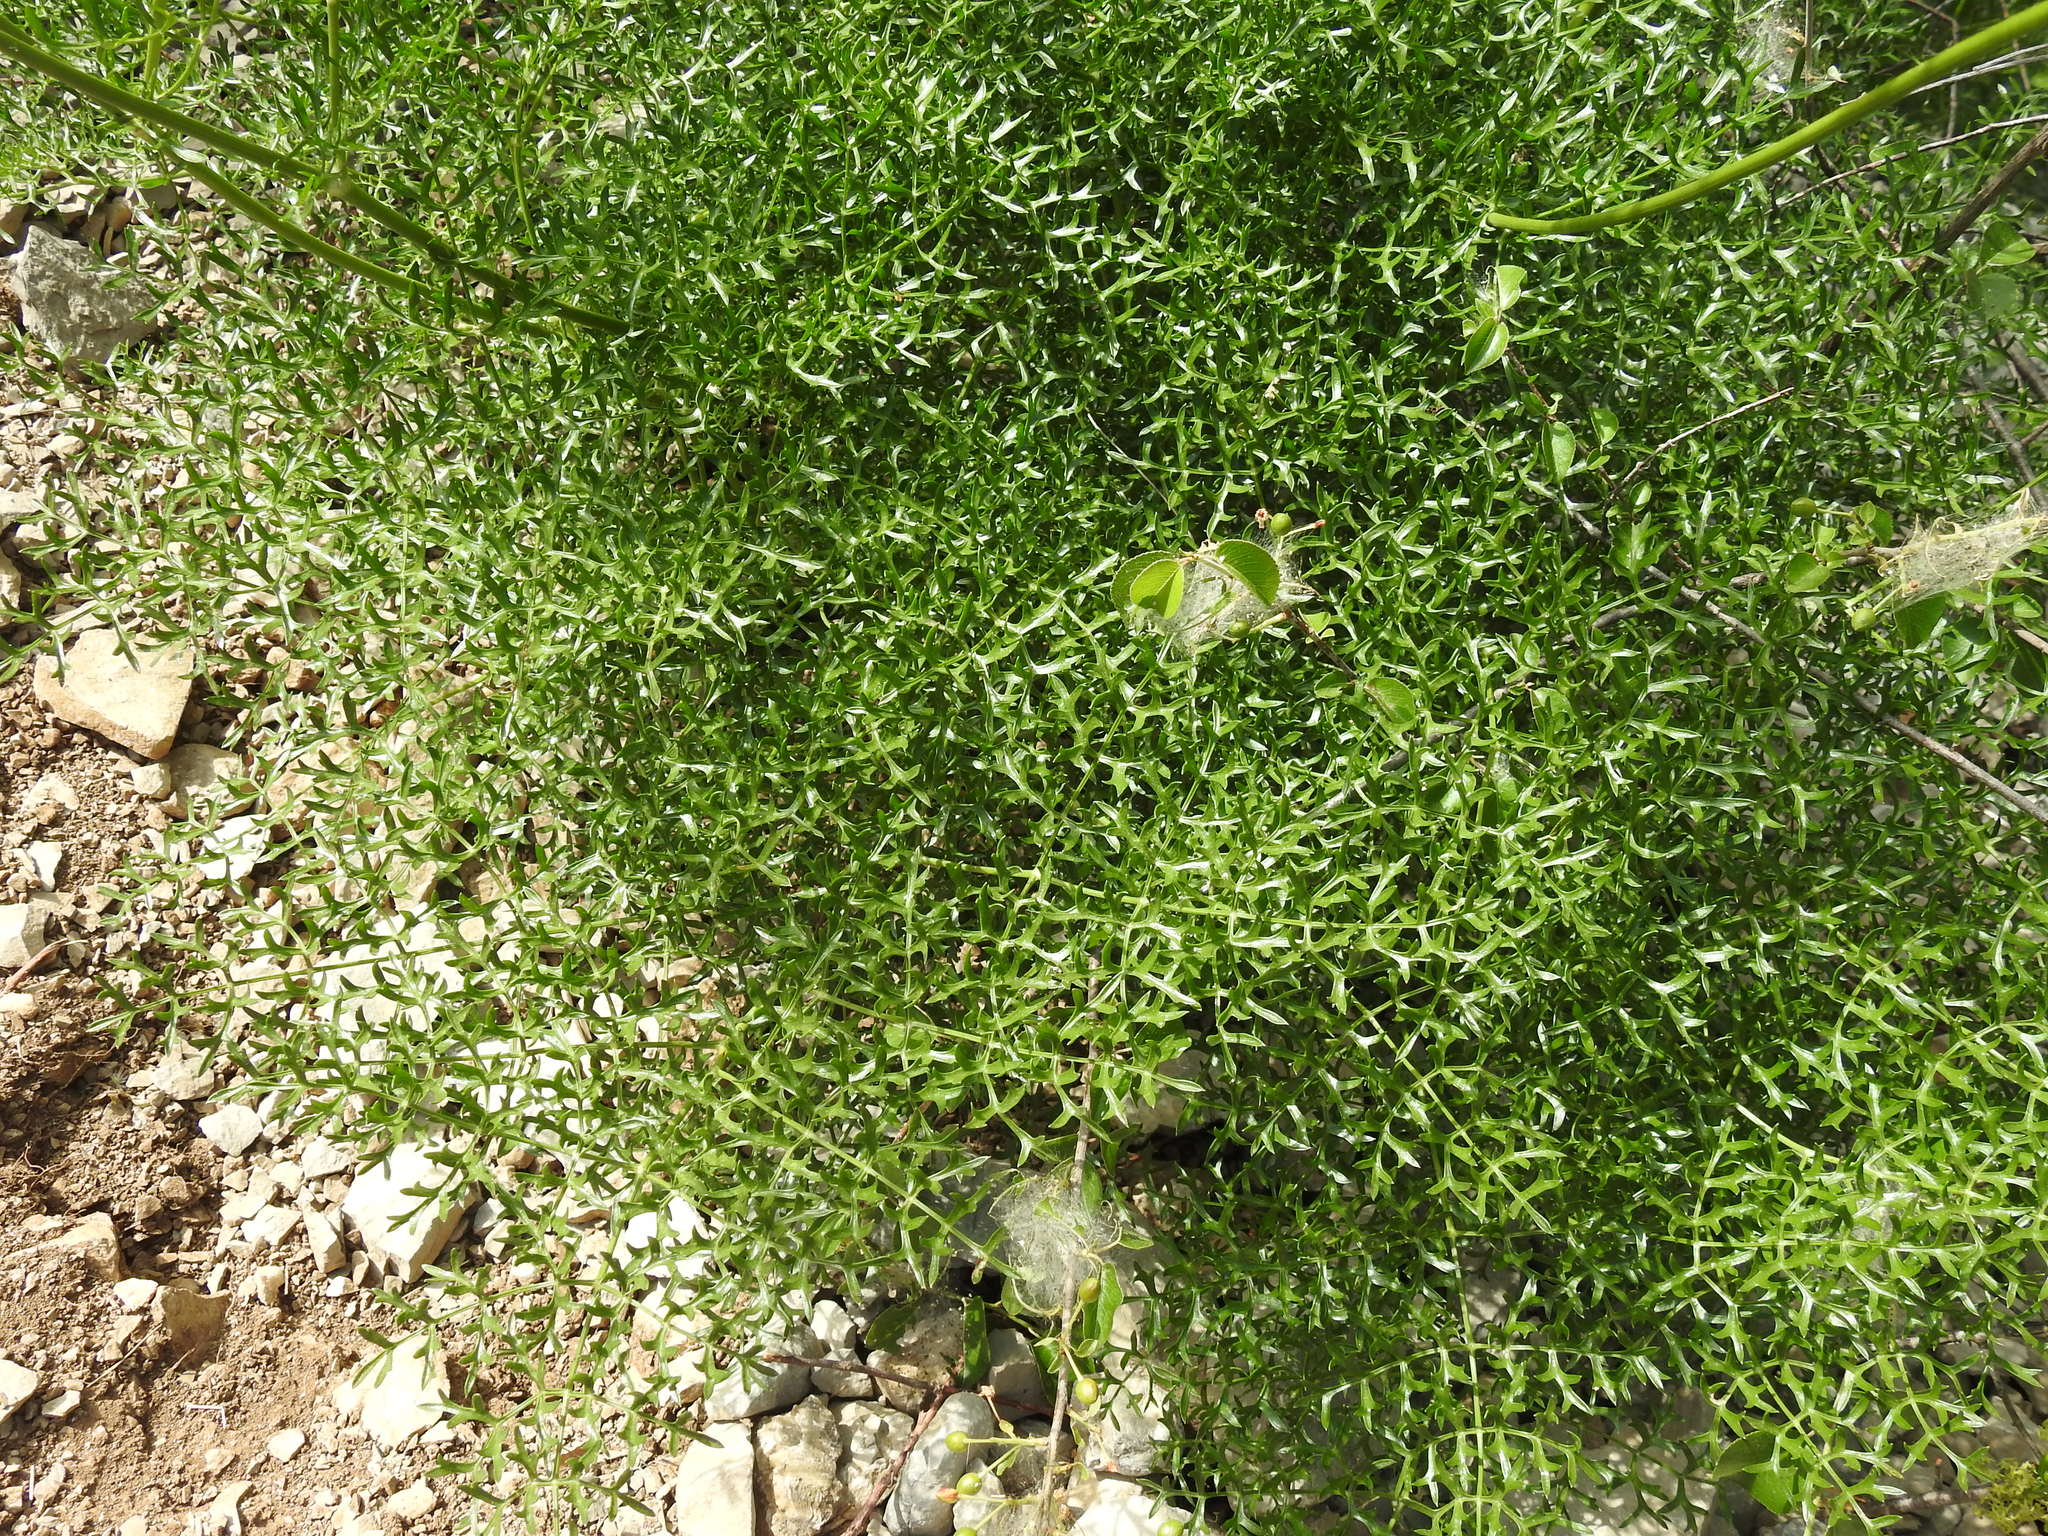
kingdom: Plantae
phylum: Tracheophyta
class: Magnoliopsida
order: Apiales
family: Apiaceae
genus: Laserpitium
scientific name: Laserpitium gallicum
